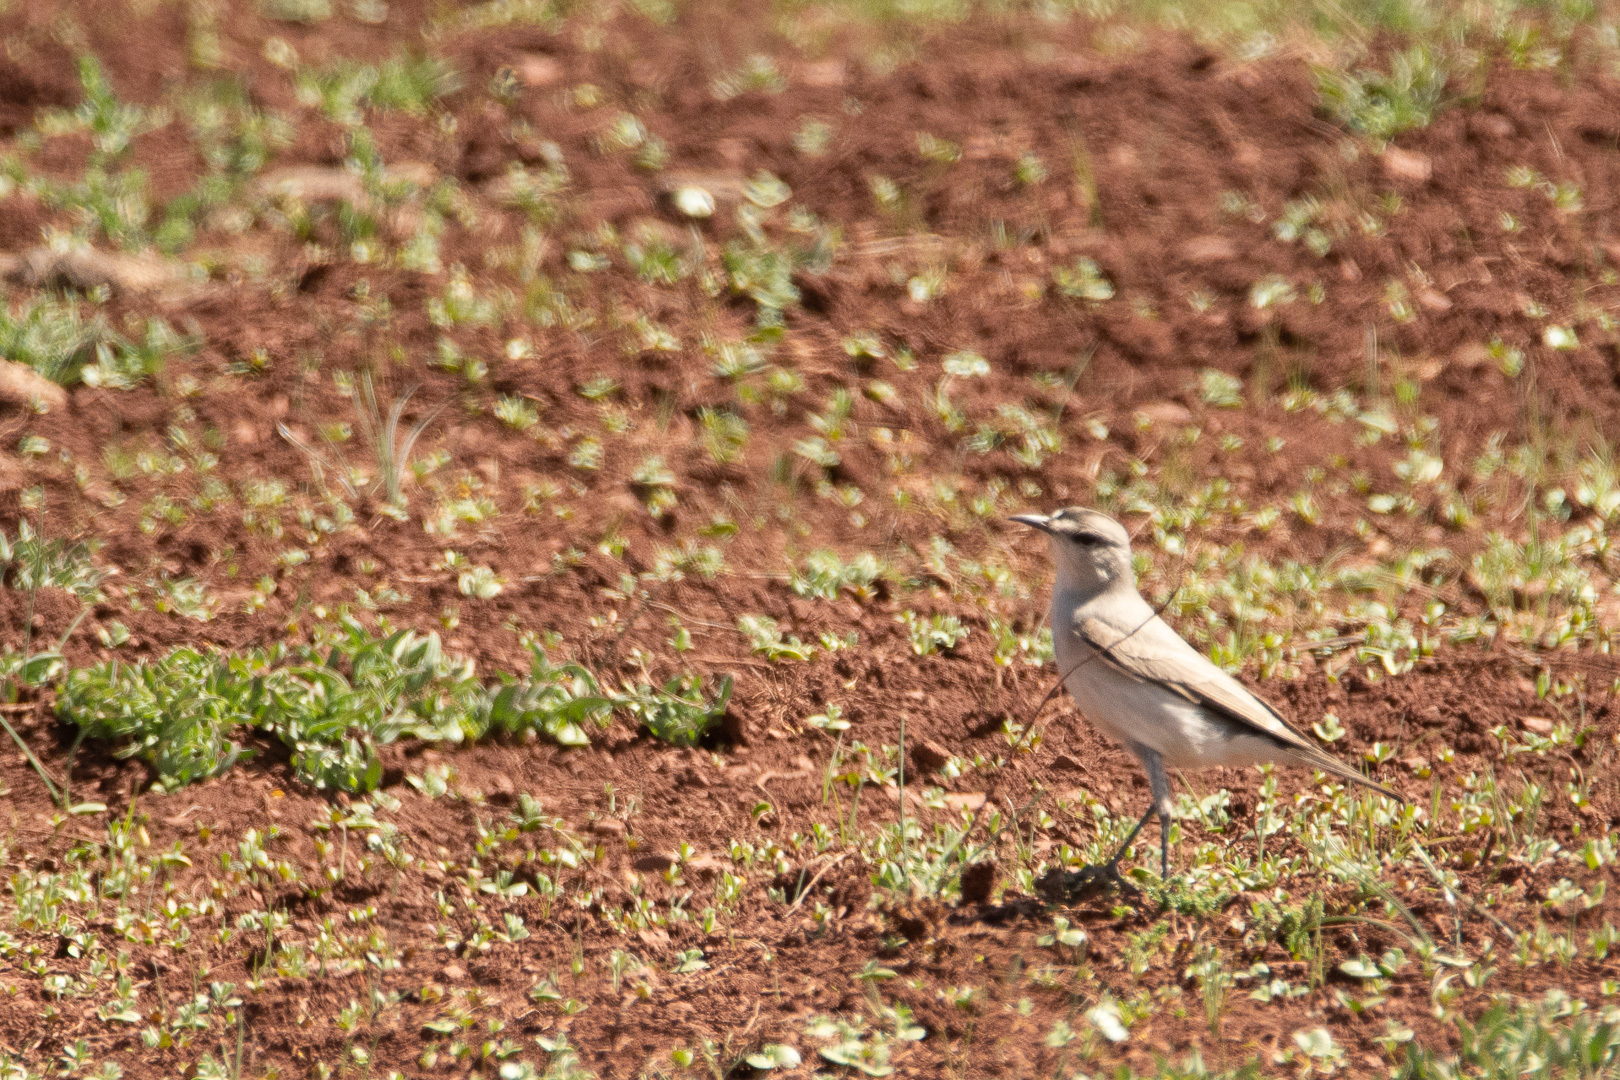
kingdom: Animalia
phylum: Chordata
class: Aves
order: Passeriformes
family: Tyrannidae
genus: Muscisaxicola
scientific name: Muscisaxicola frontalis
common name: Black-fronted ground tyrant
